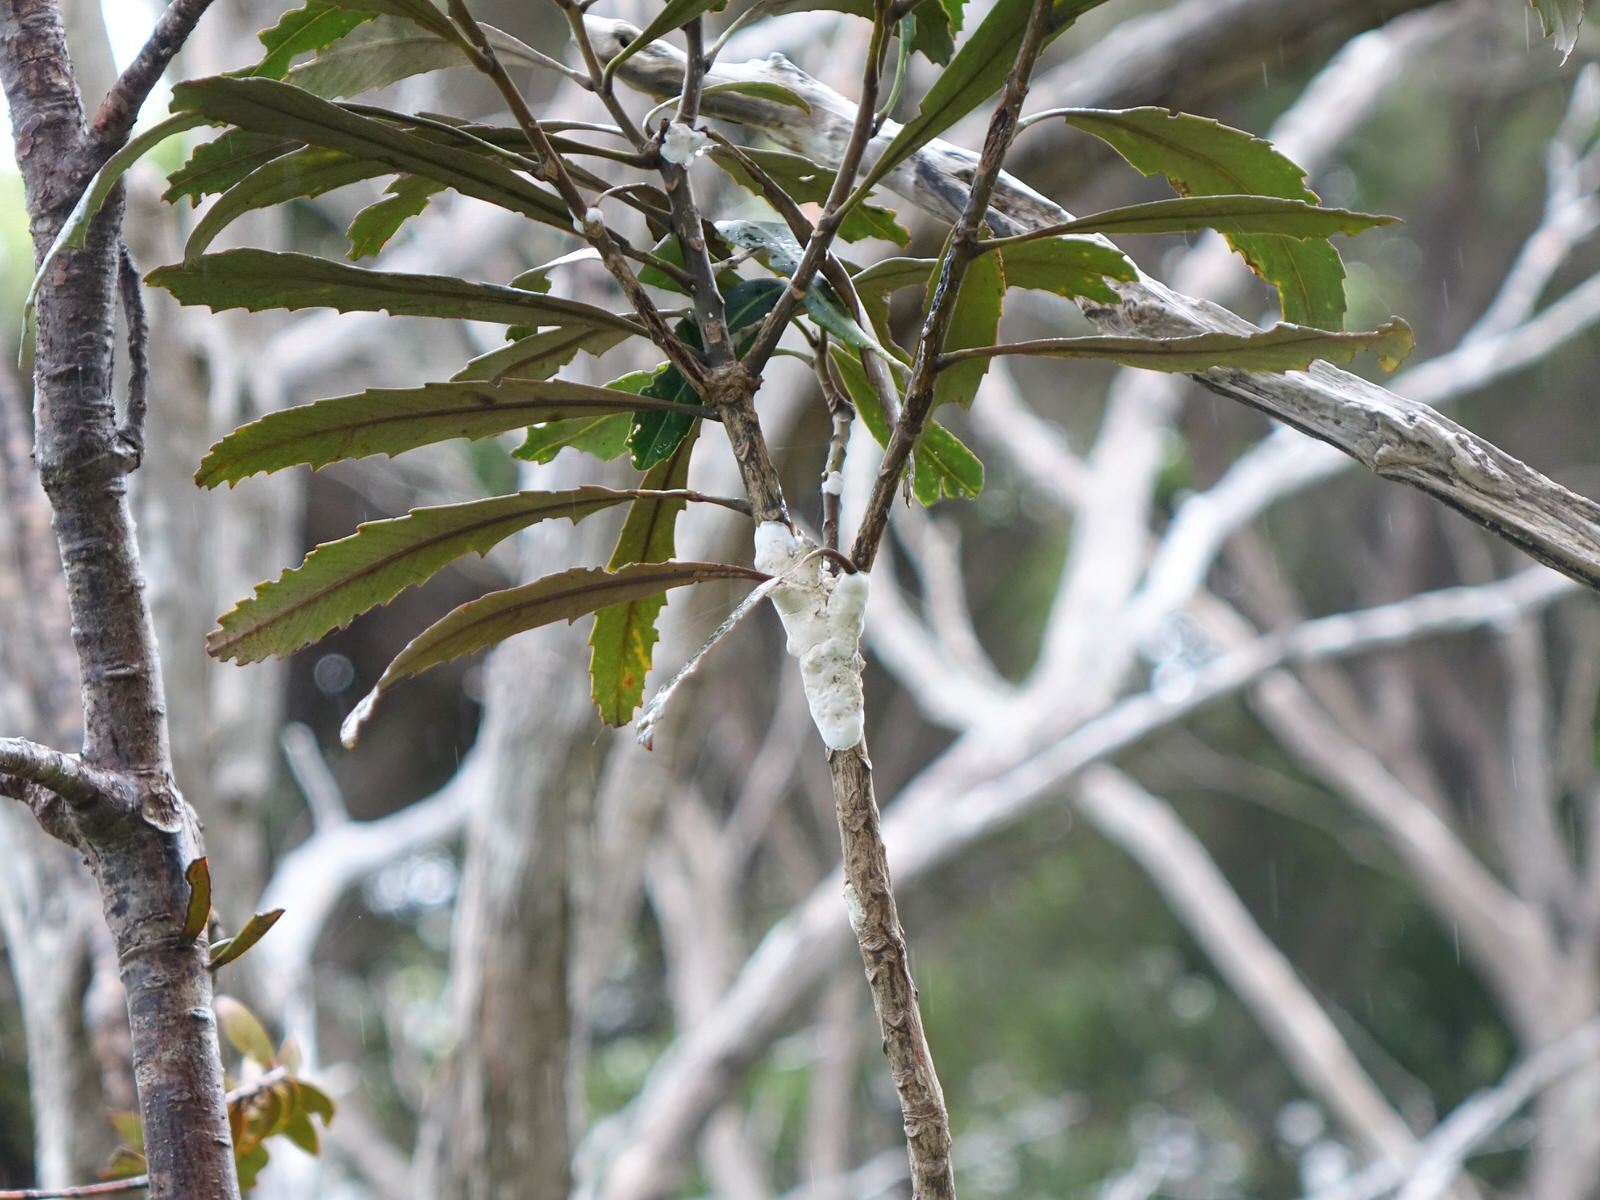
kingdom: Fungi
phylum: Basidiomycota
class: Pucciniomycetes
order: Septobasidiales
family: Septobasidiaceae
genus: Septobasidium
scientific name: Septobasidium simmondsii
